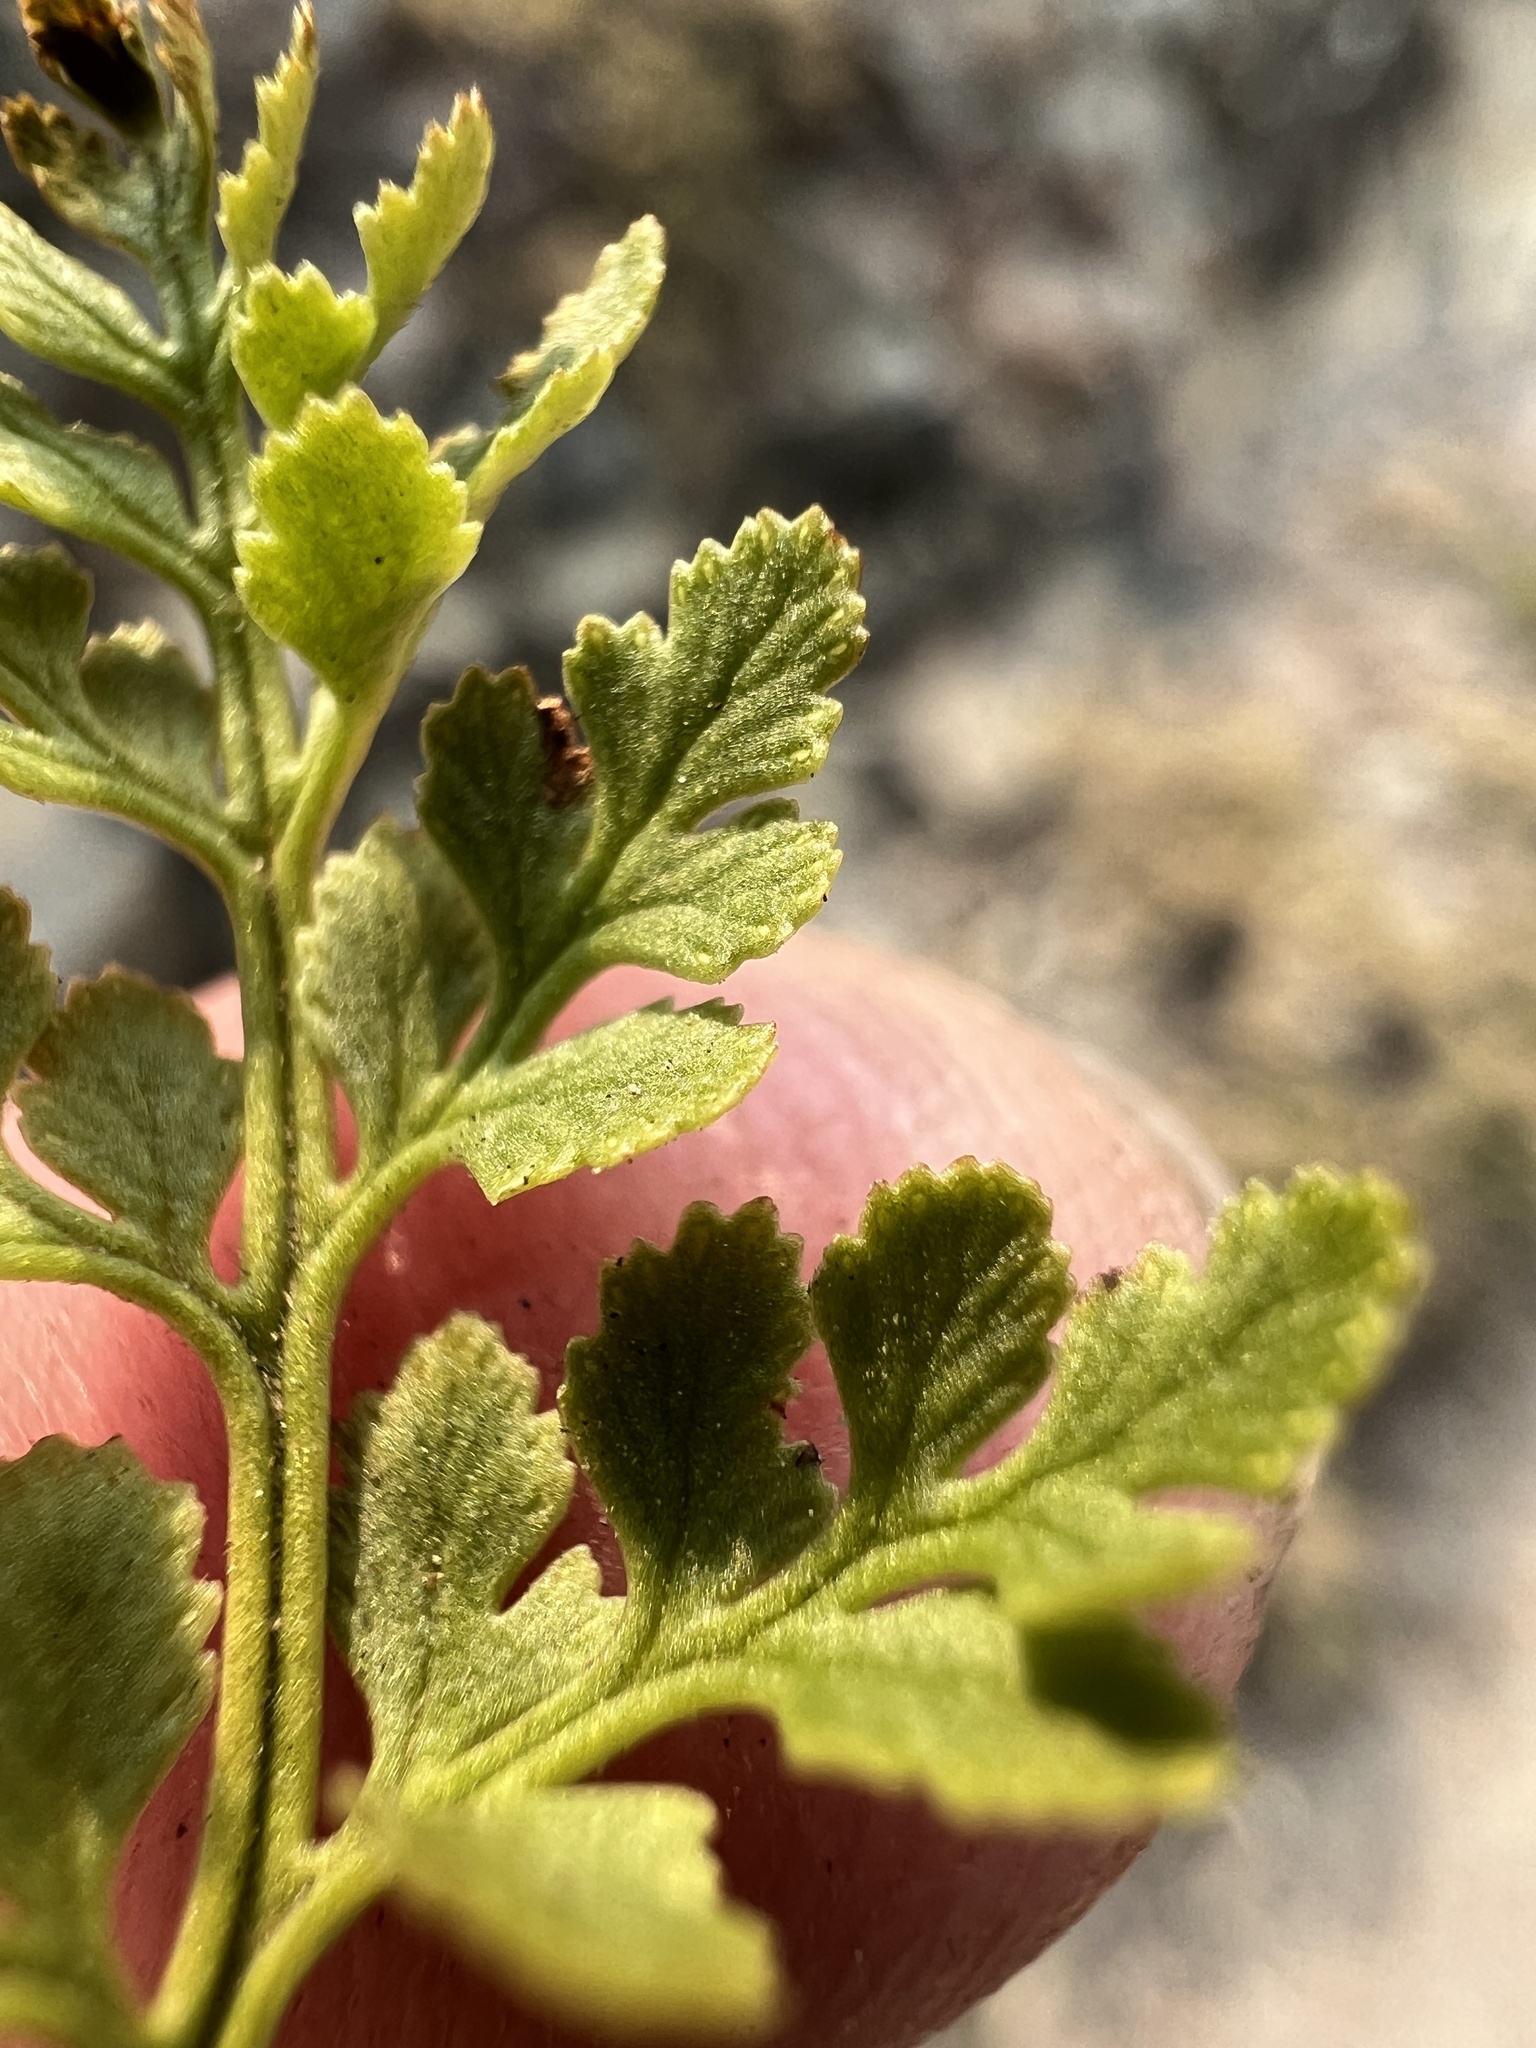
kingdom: Plantae
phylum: Tracheophyta
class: Polypodiopsida
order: Polypodiales
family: Pteridaceae
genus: Cryptogramma
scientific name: Cryptogramma acrostichoides
